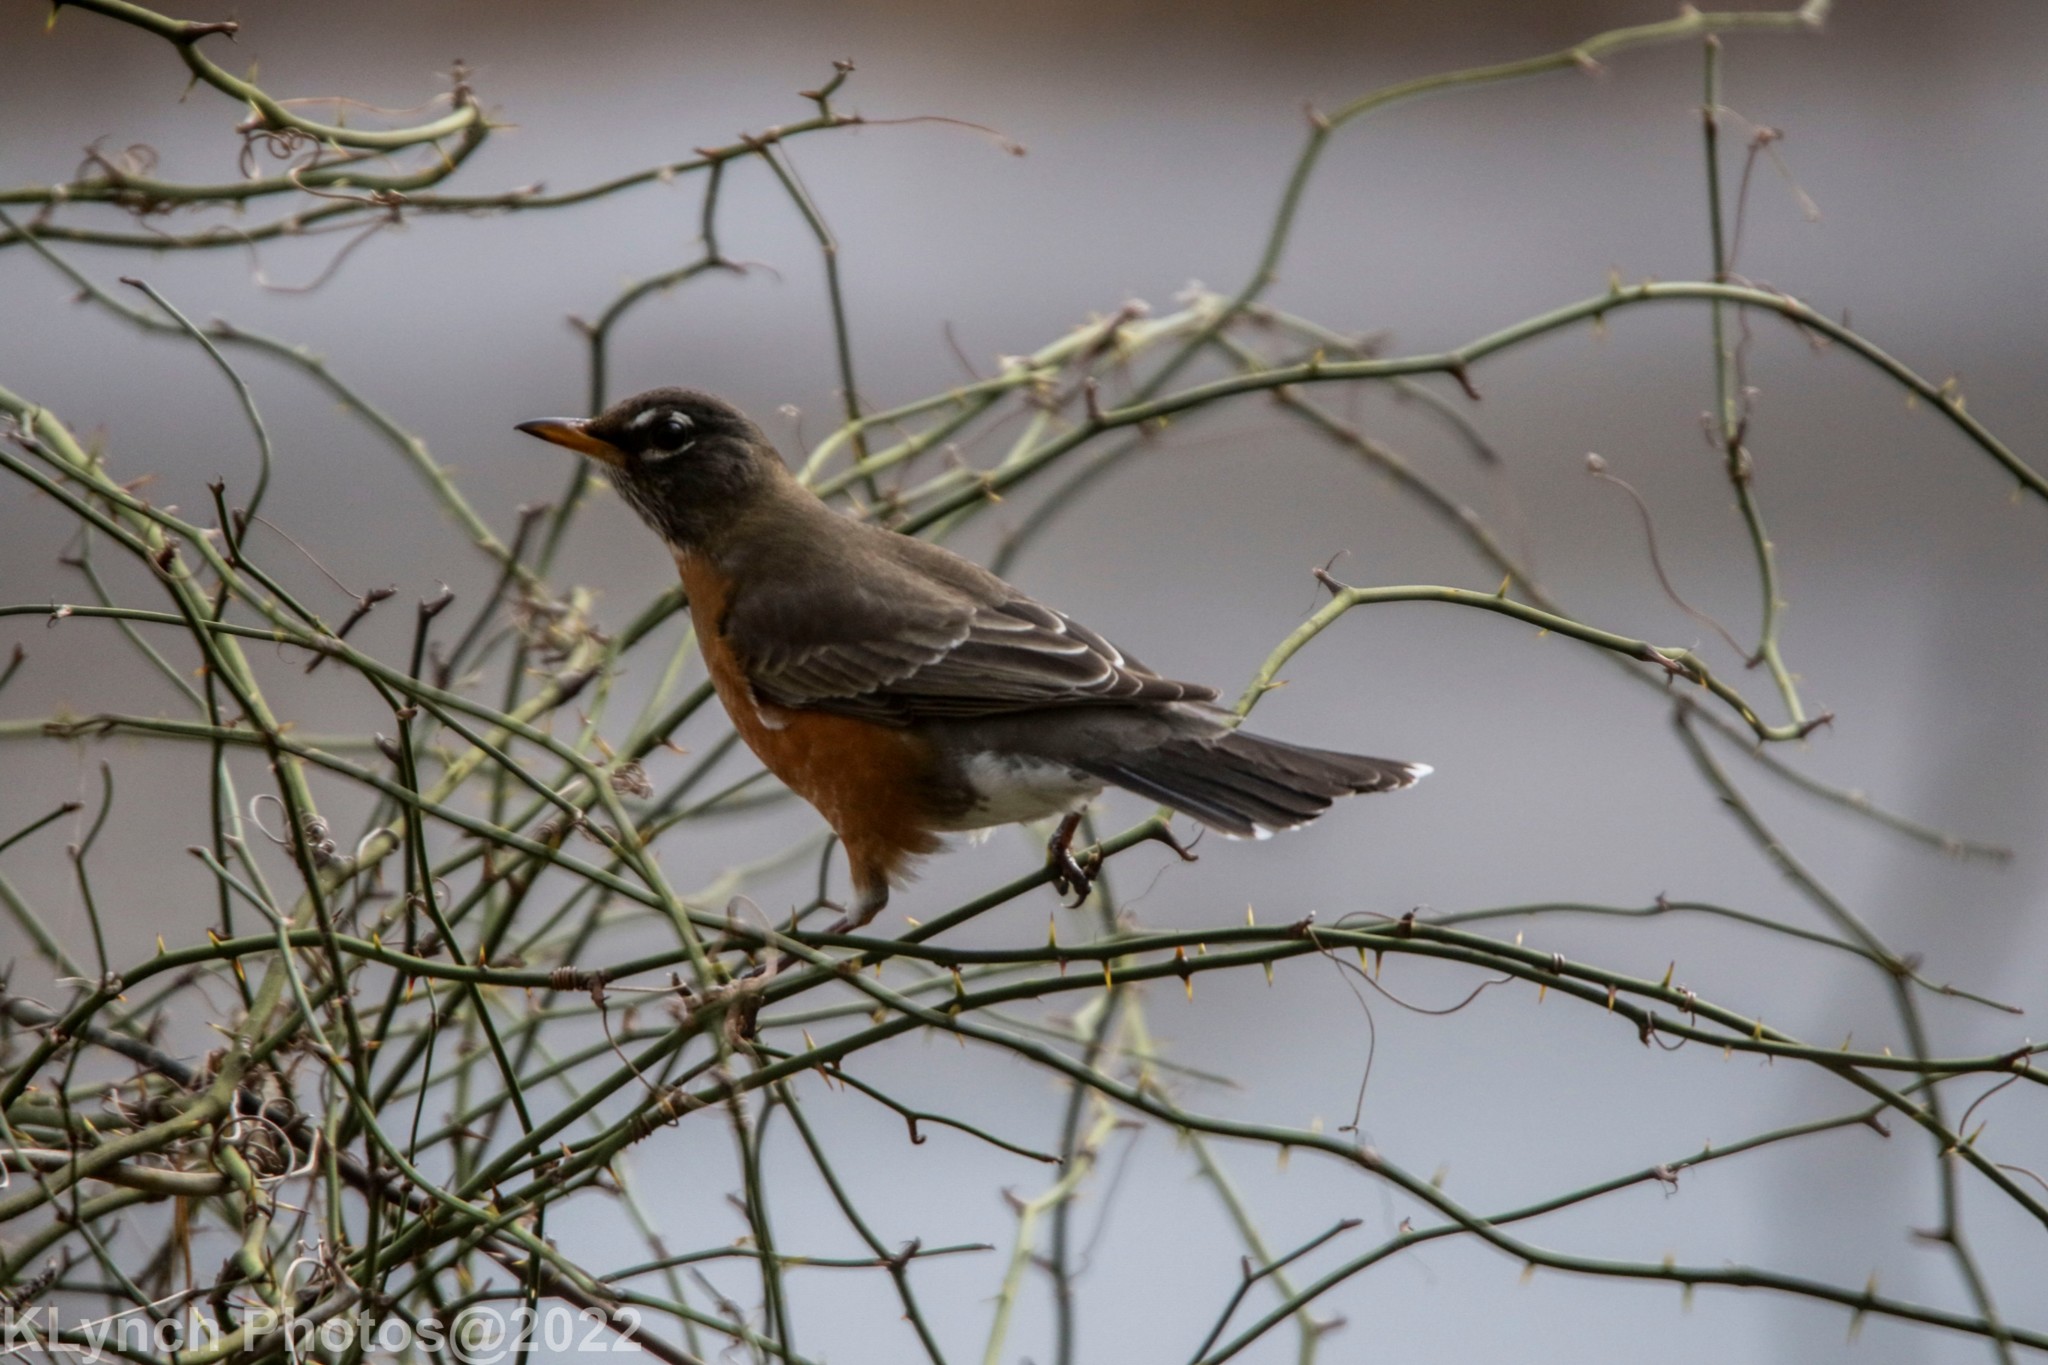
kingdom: Animalia
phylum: Chordata
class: Aves
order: Passeriformes
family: Turdidae
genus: Turdus
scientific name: Turdus migratorius
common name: American robin
